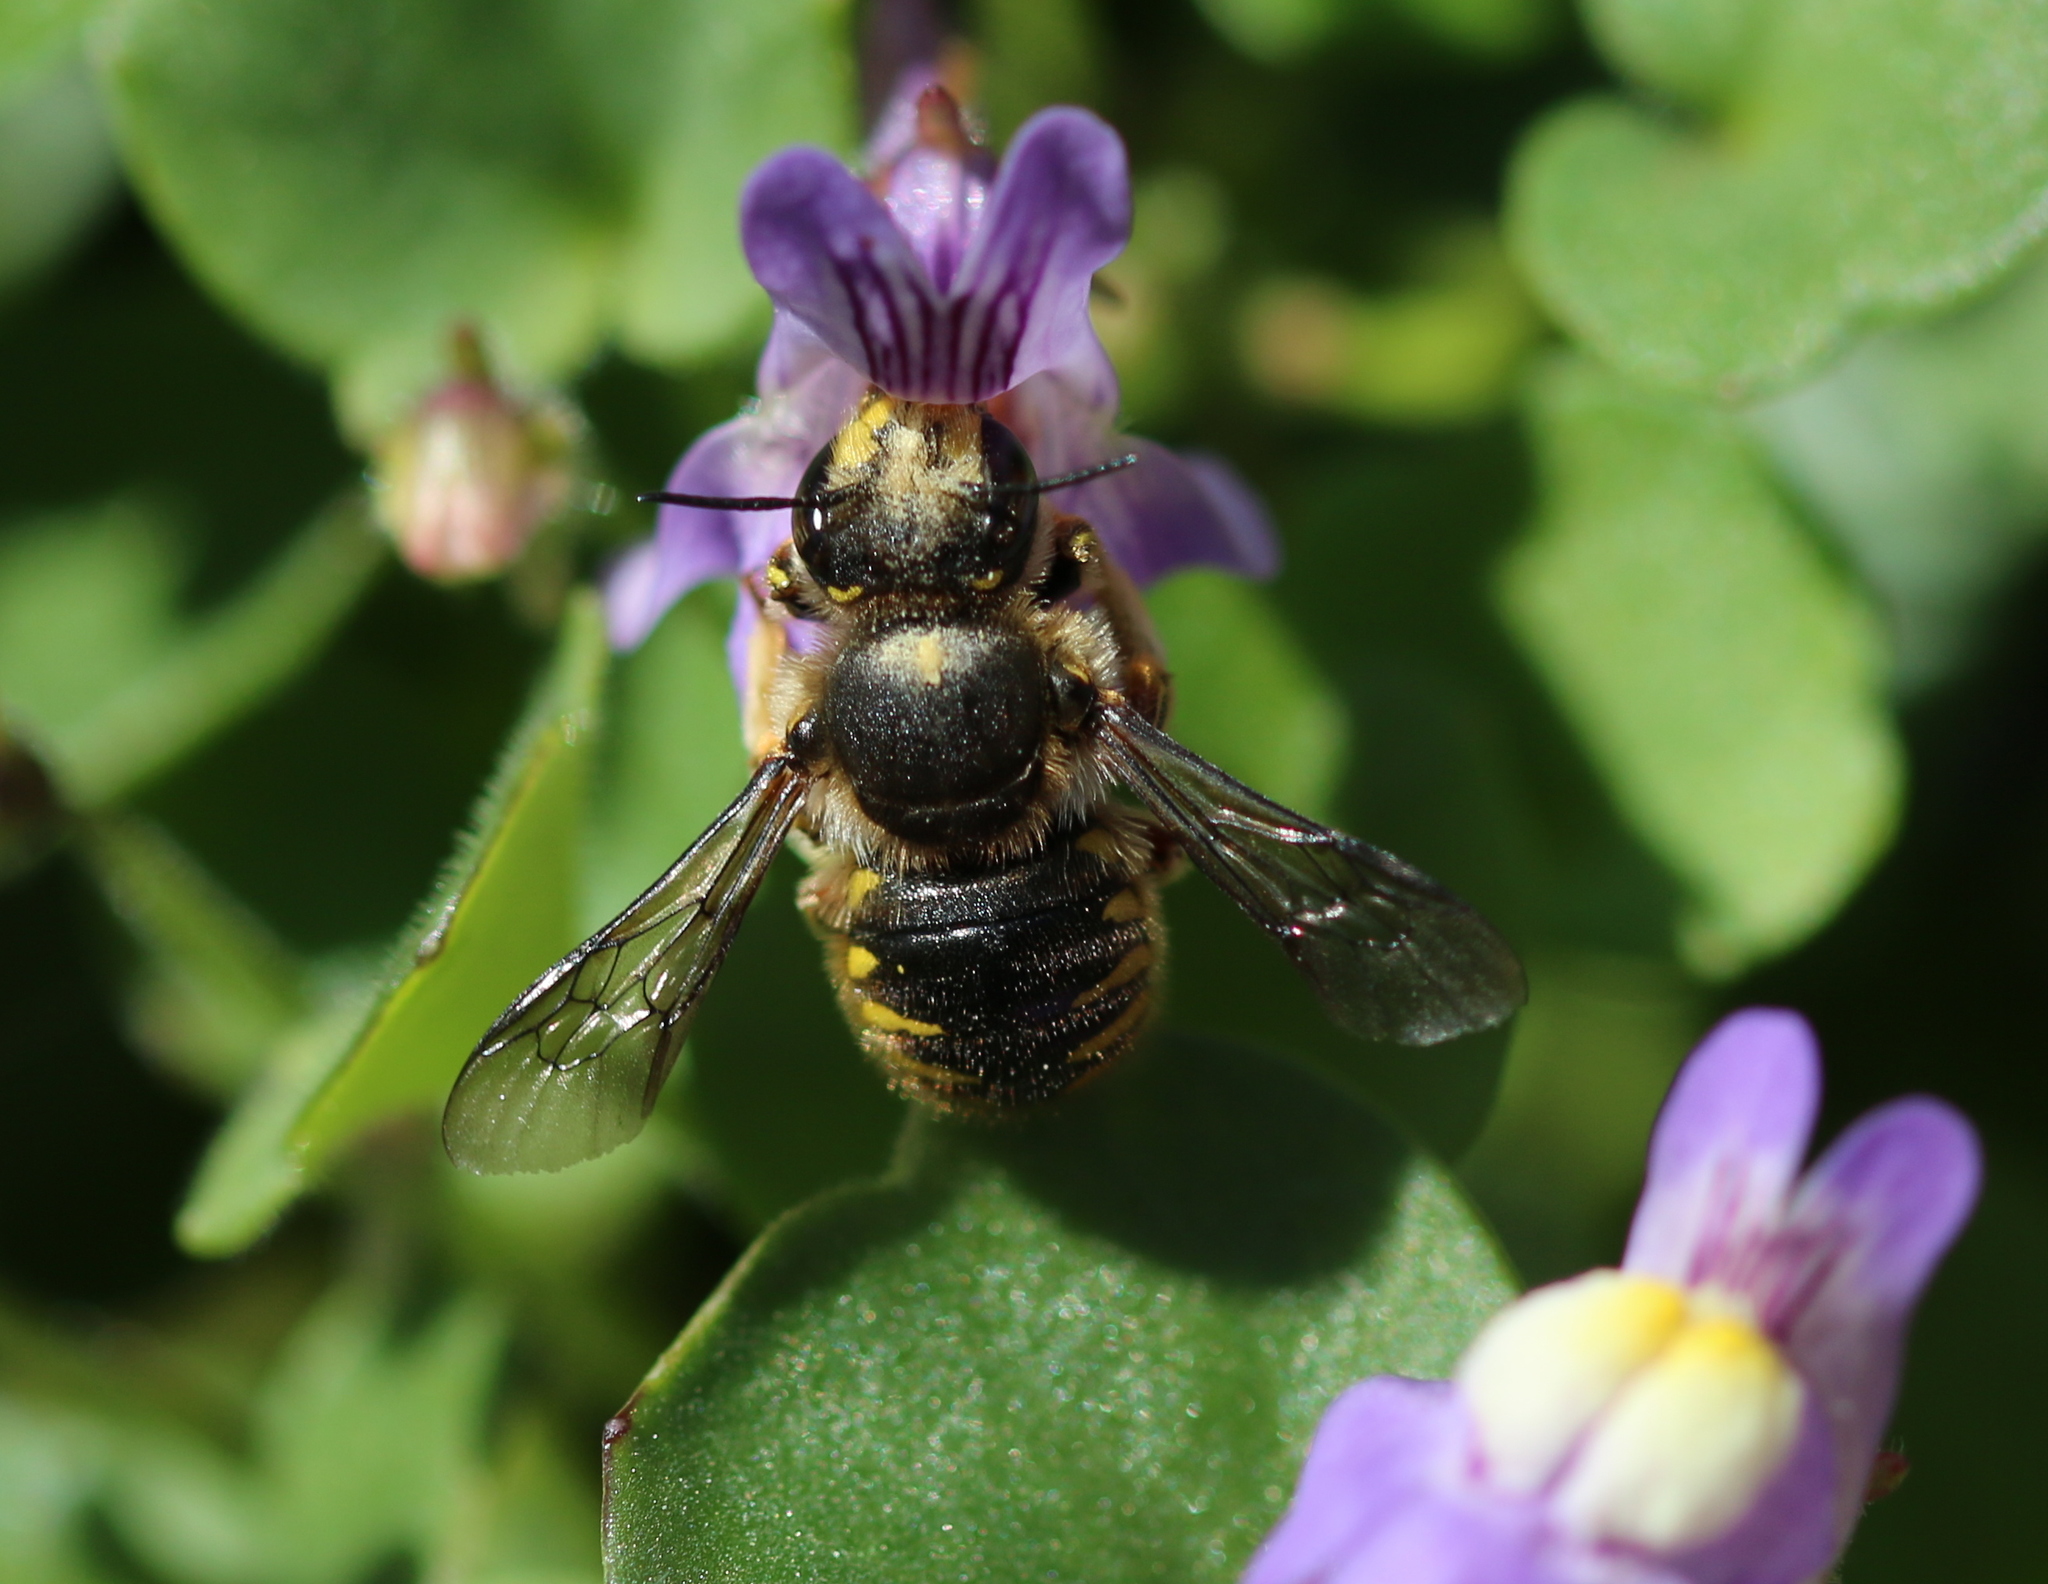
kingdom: Animalia
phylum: Arthropoda
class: Insecta
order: Hymenoptera
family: Megachilidae
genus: Anthidium
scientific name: Anthidium manicatum
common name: Wool carder bee
